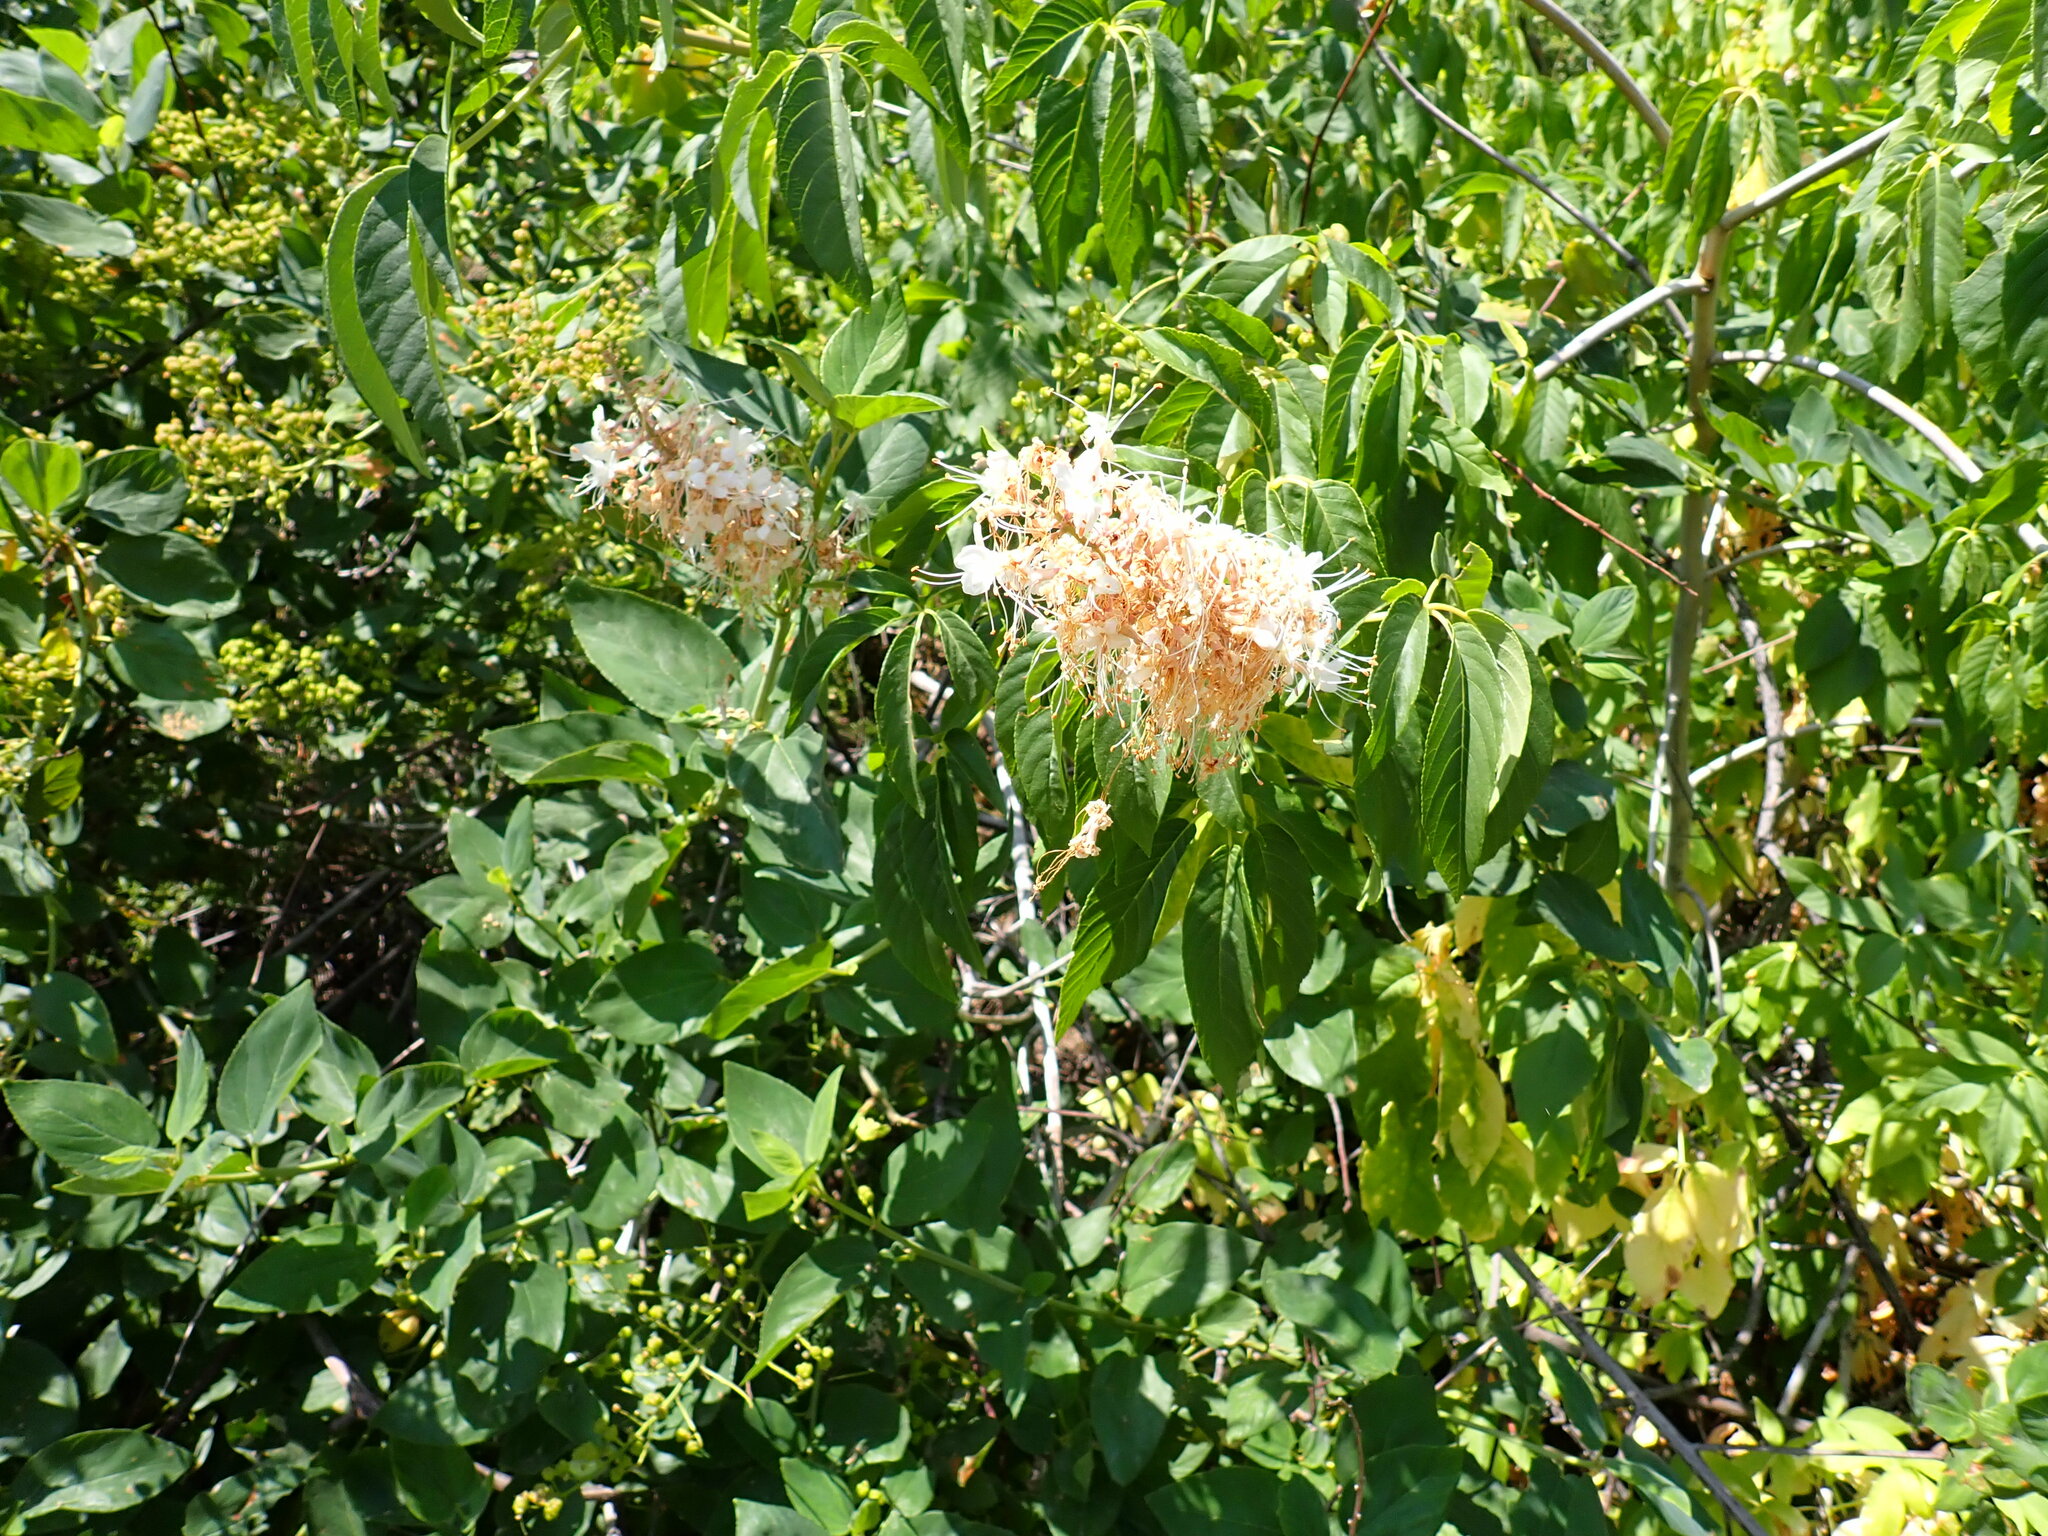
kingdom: Plantae
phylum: Tracheophyta
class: Magnoliopsida
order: Sapindales
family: Sapindaceae
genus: Aesculus
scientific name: Aesculus californica
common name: California buckeye
